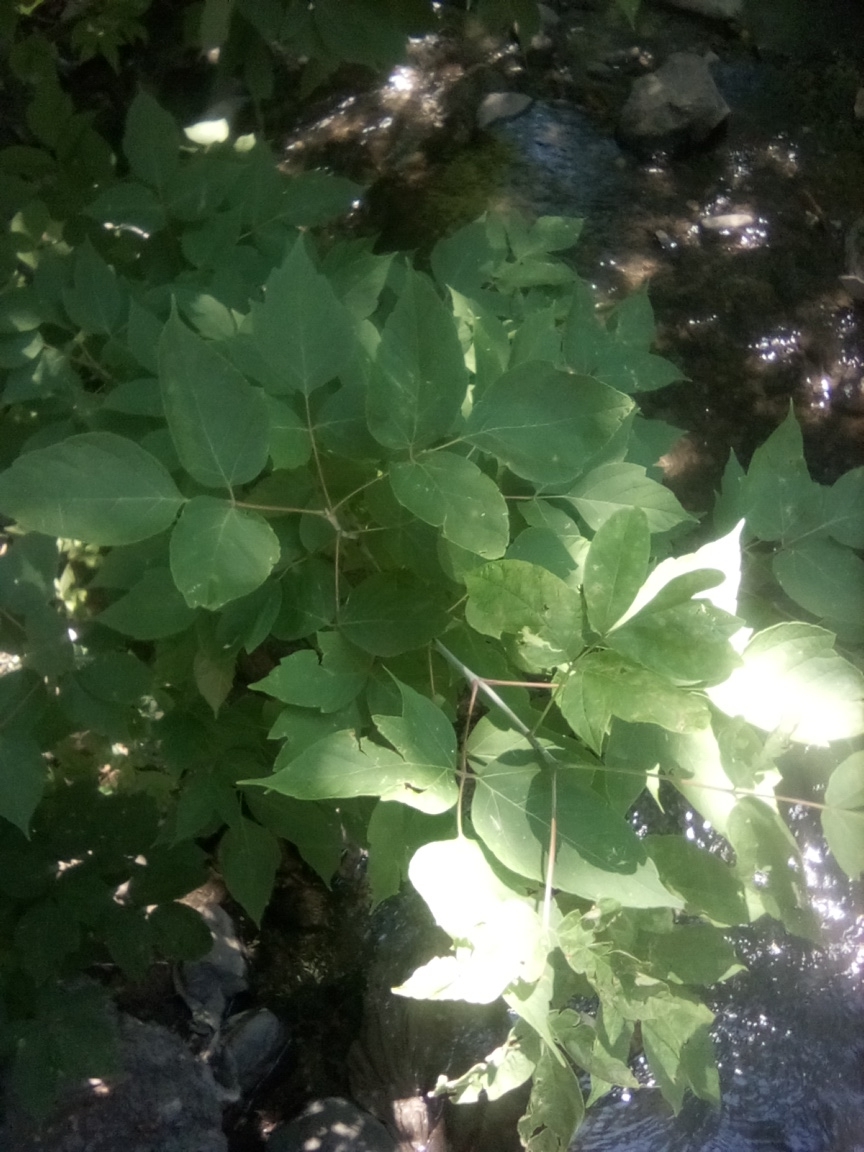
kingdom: Plantae
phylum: Tracheophyta
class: Magnoliopsida
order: Sapindales
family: Sapindaceae
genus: Acer
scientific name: Acer negundo
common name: Ashleaf maple
